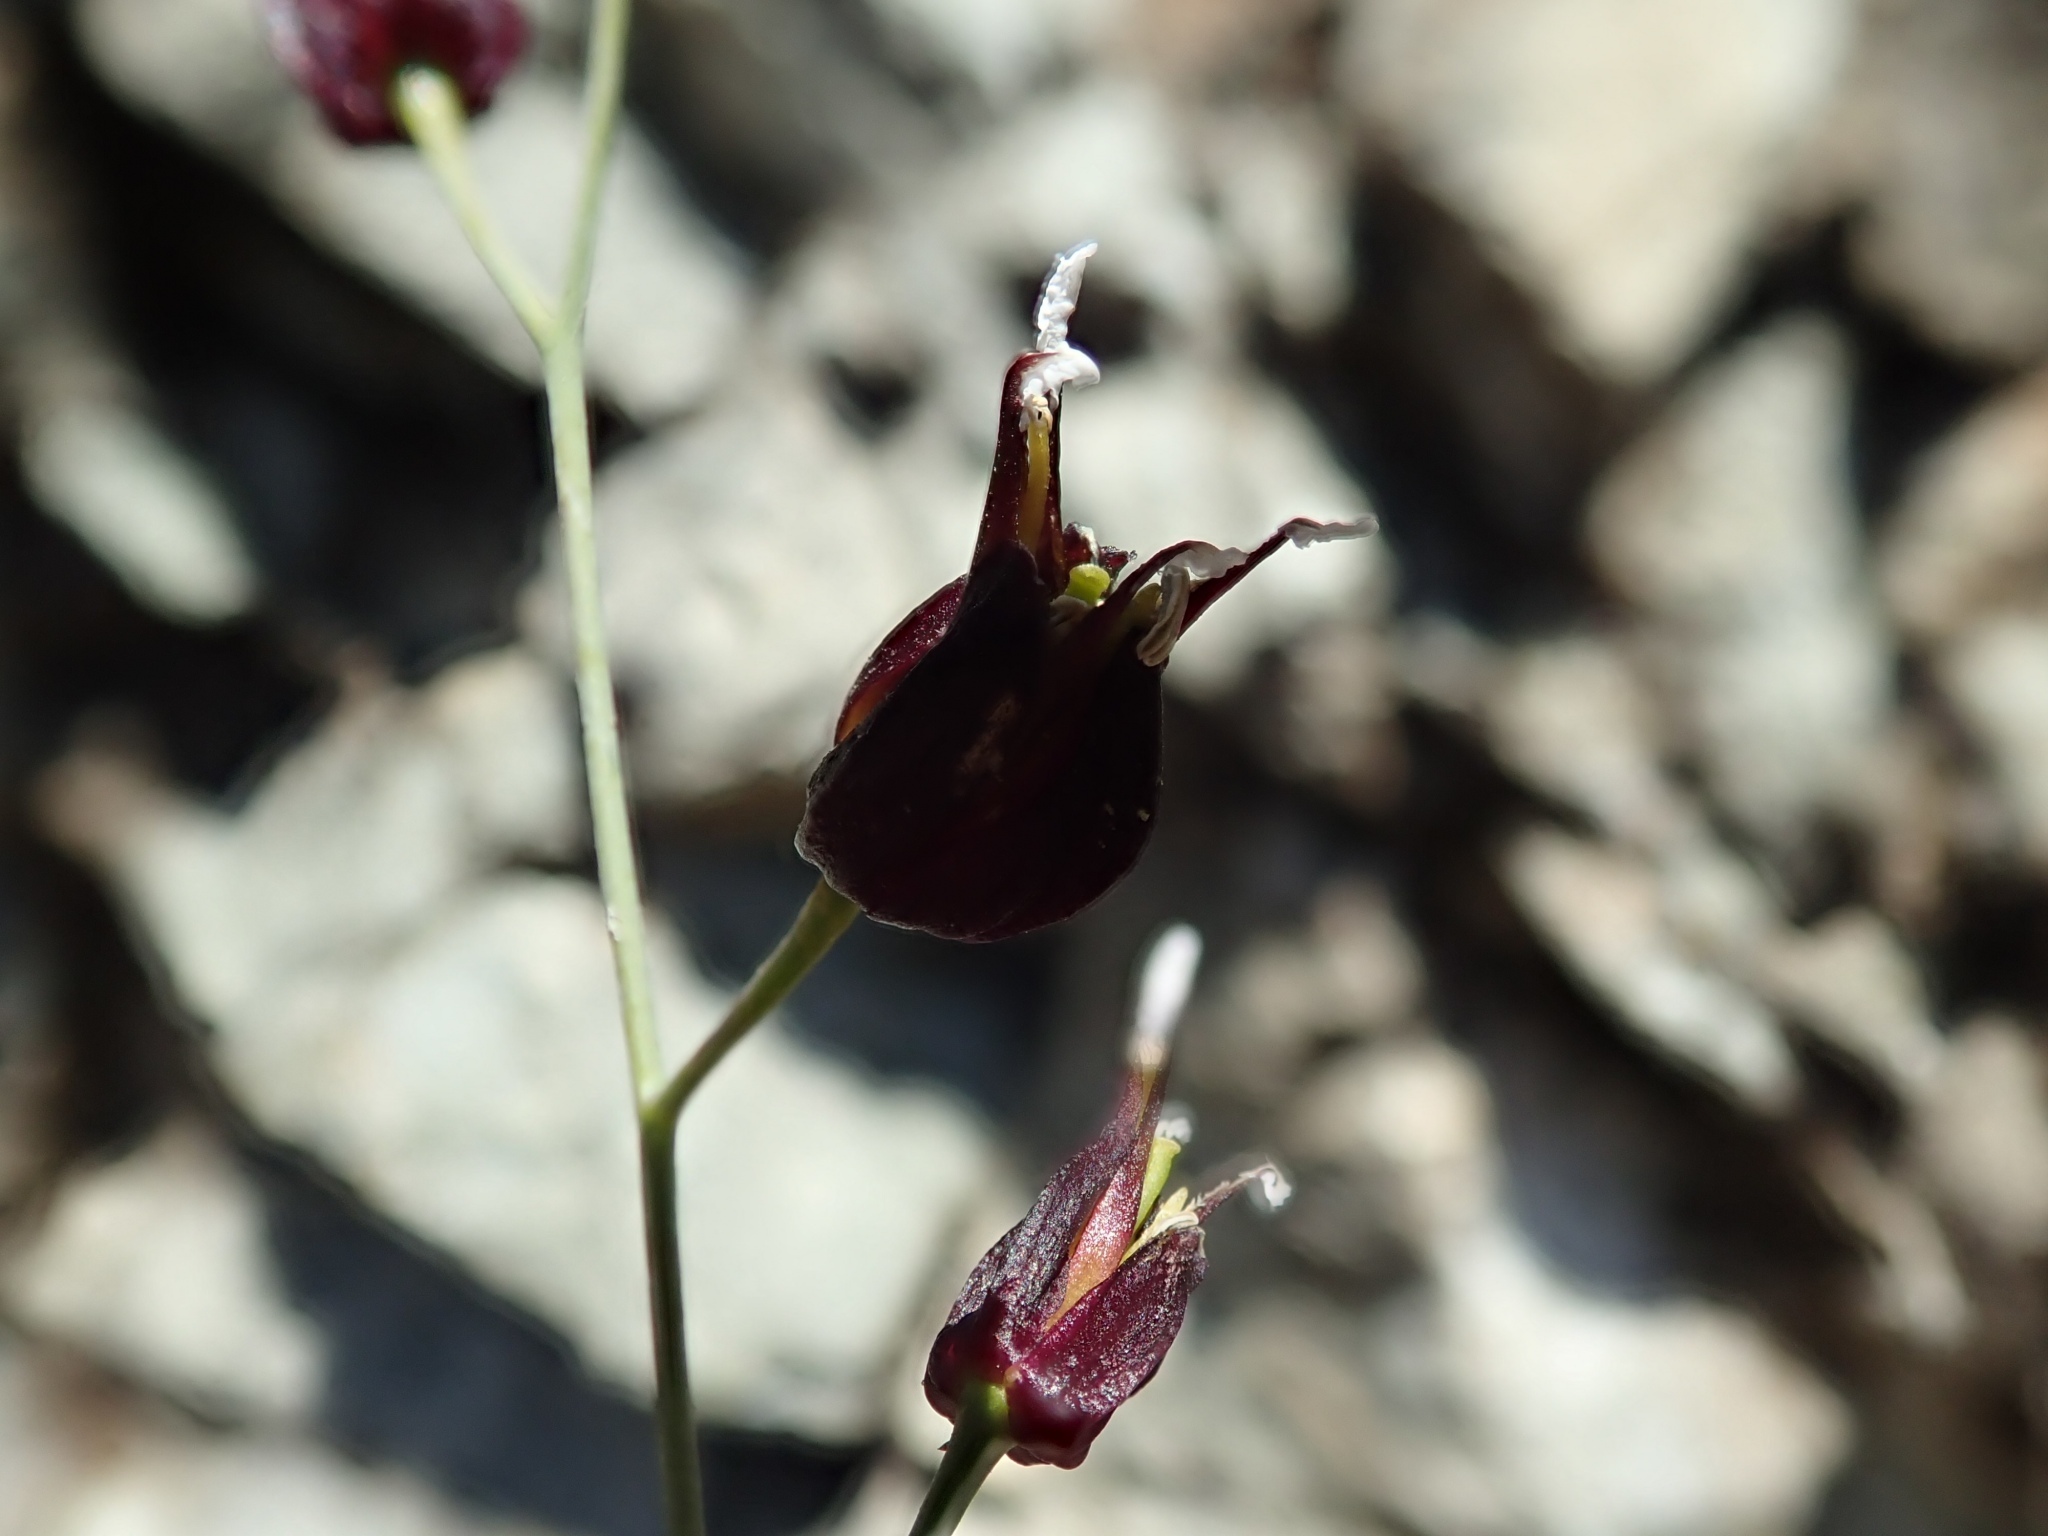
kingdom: Plantae
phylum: Tracheophyta
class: Magnoliopsida
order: Brassicales
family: Brassicaceae
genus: Streptanthus
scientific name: Streptanthus glandulosus
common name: Jewel-flower
